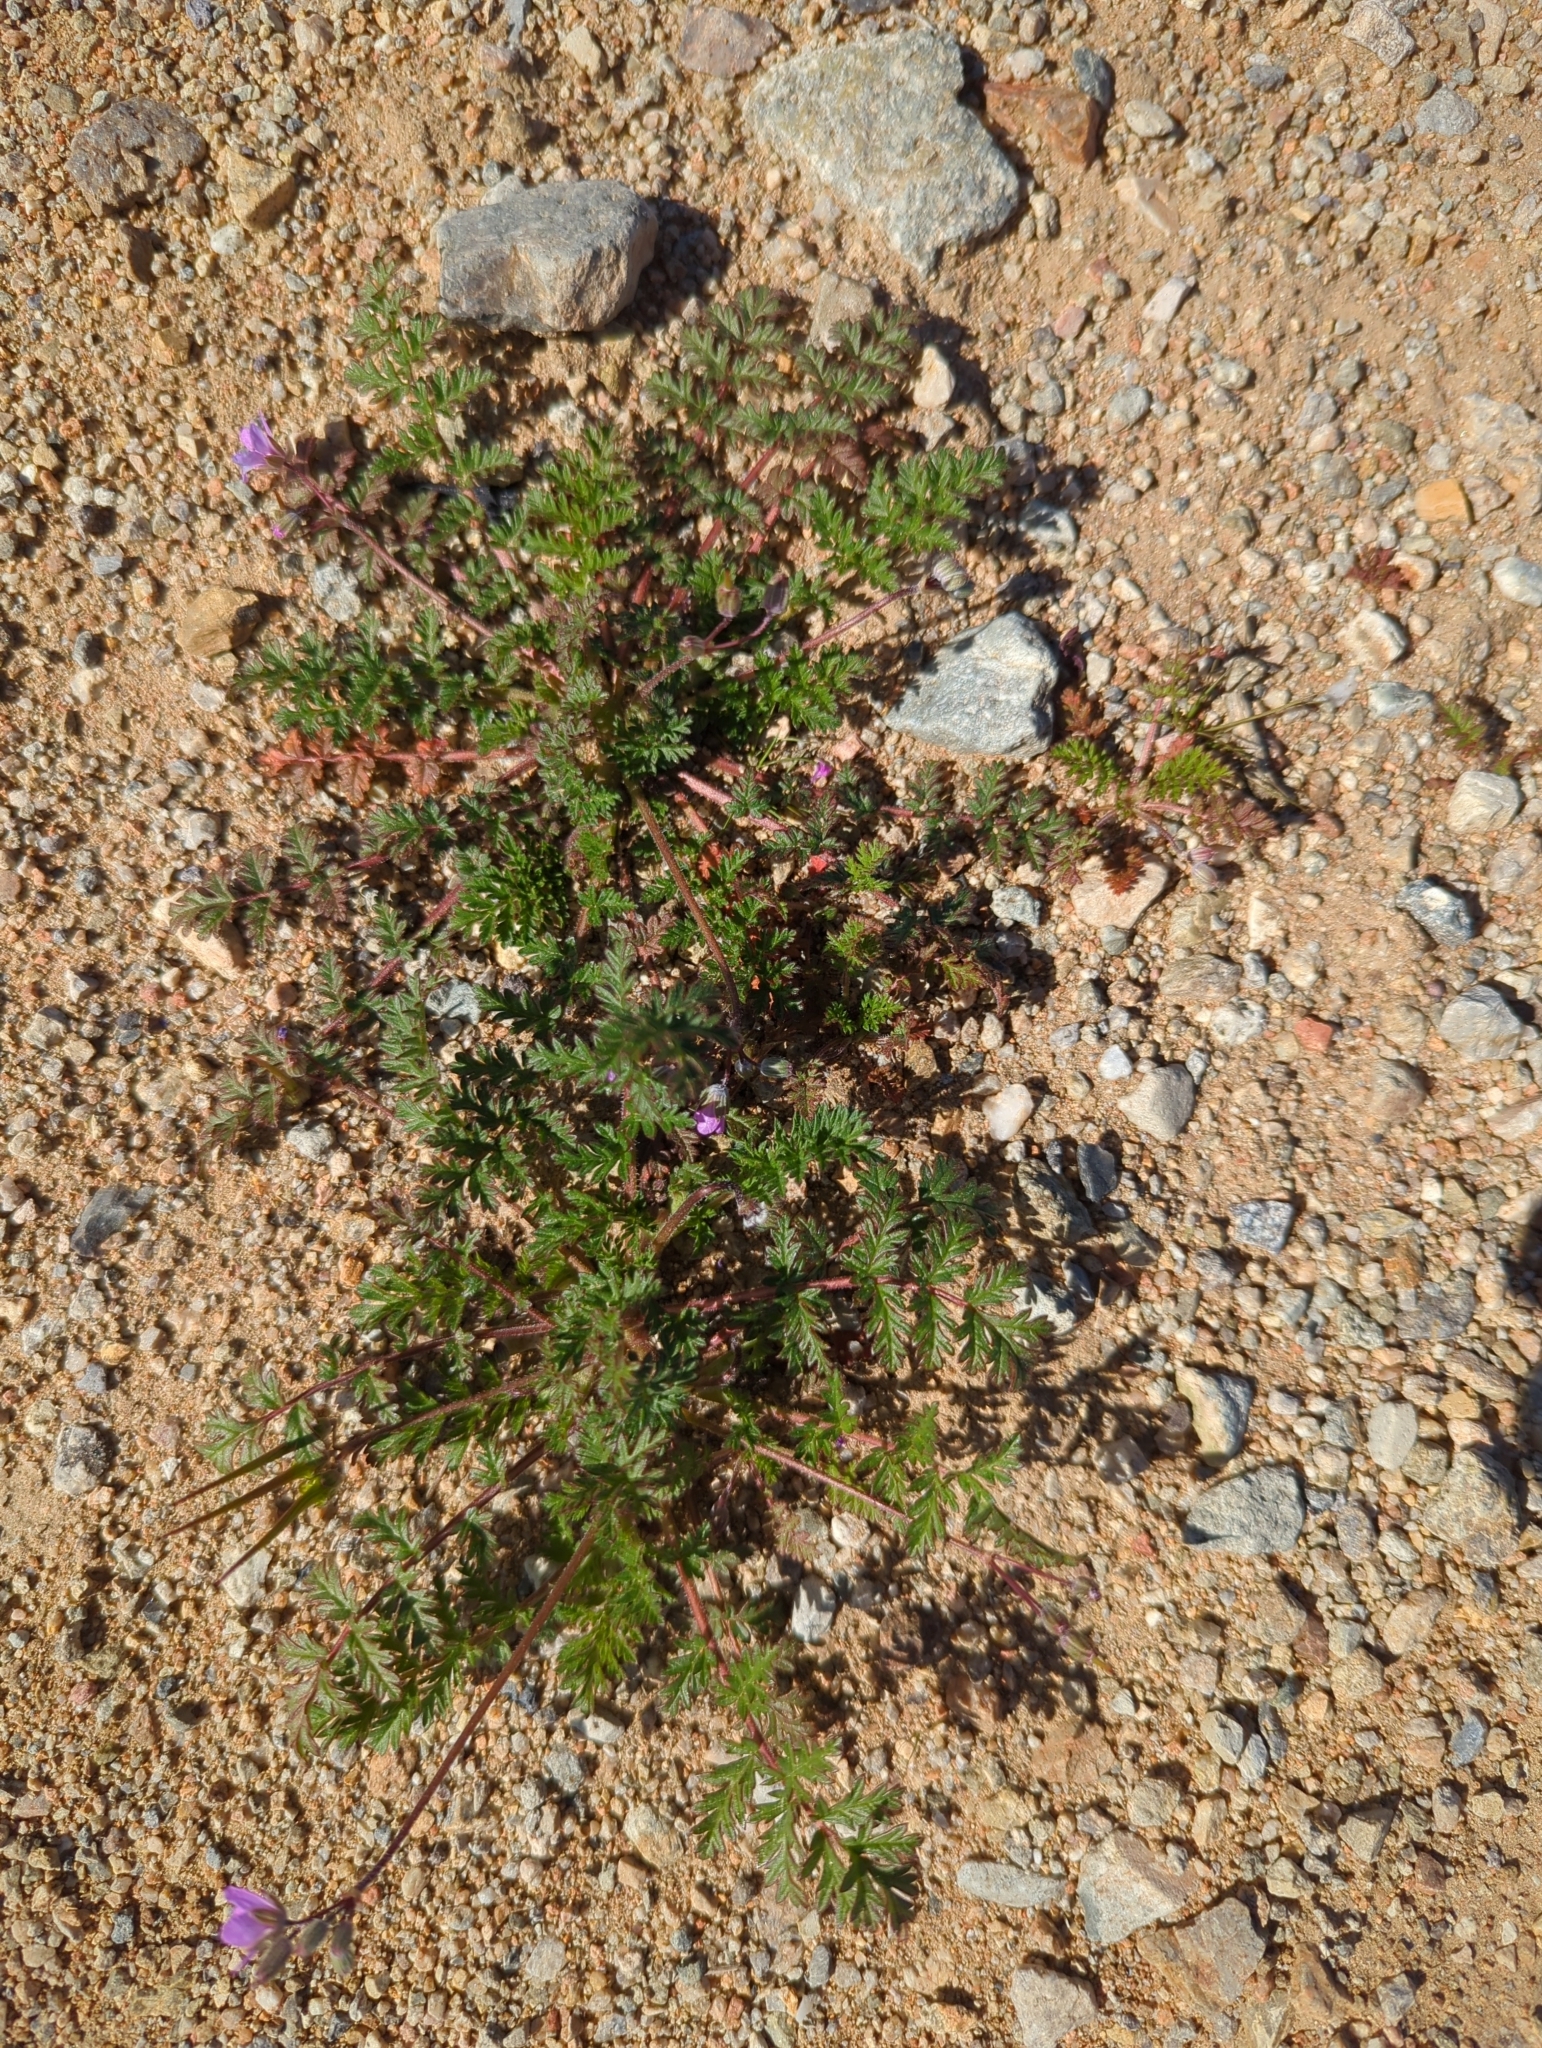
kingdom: Plantae
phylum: Tracheophyta
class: Magnoliopsida
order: Geraniales
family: Geraniaceae
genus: Erodium
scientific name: Erodium cicutarium
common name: Common stork's-bill
